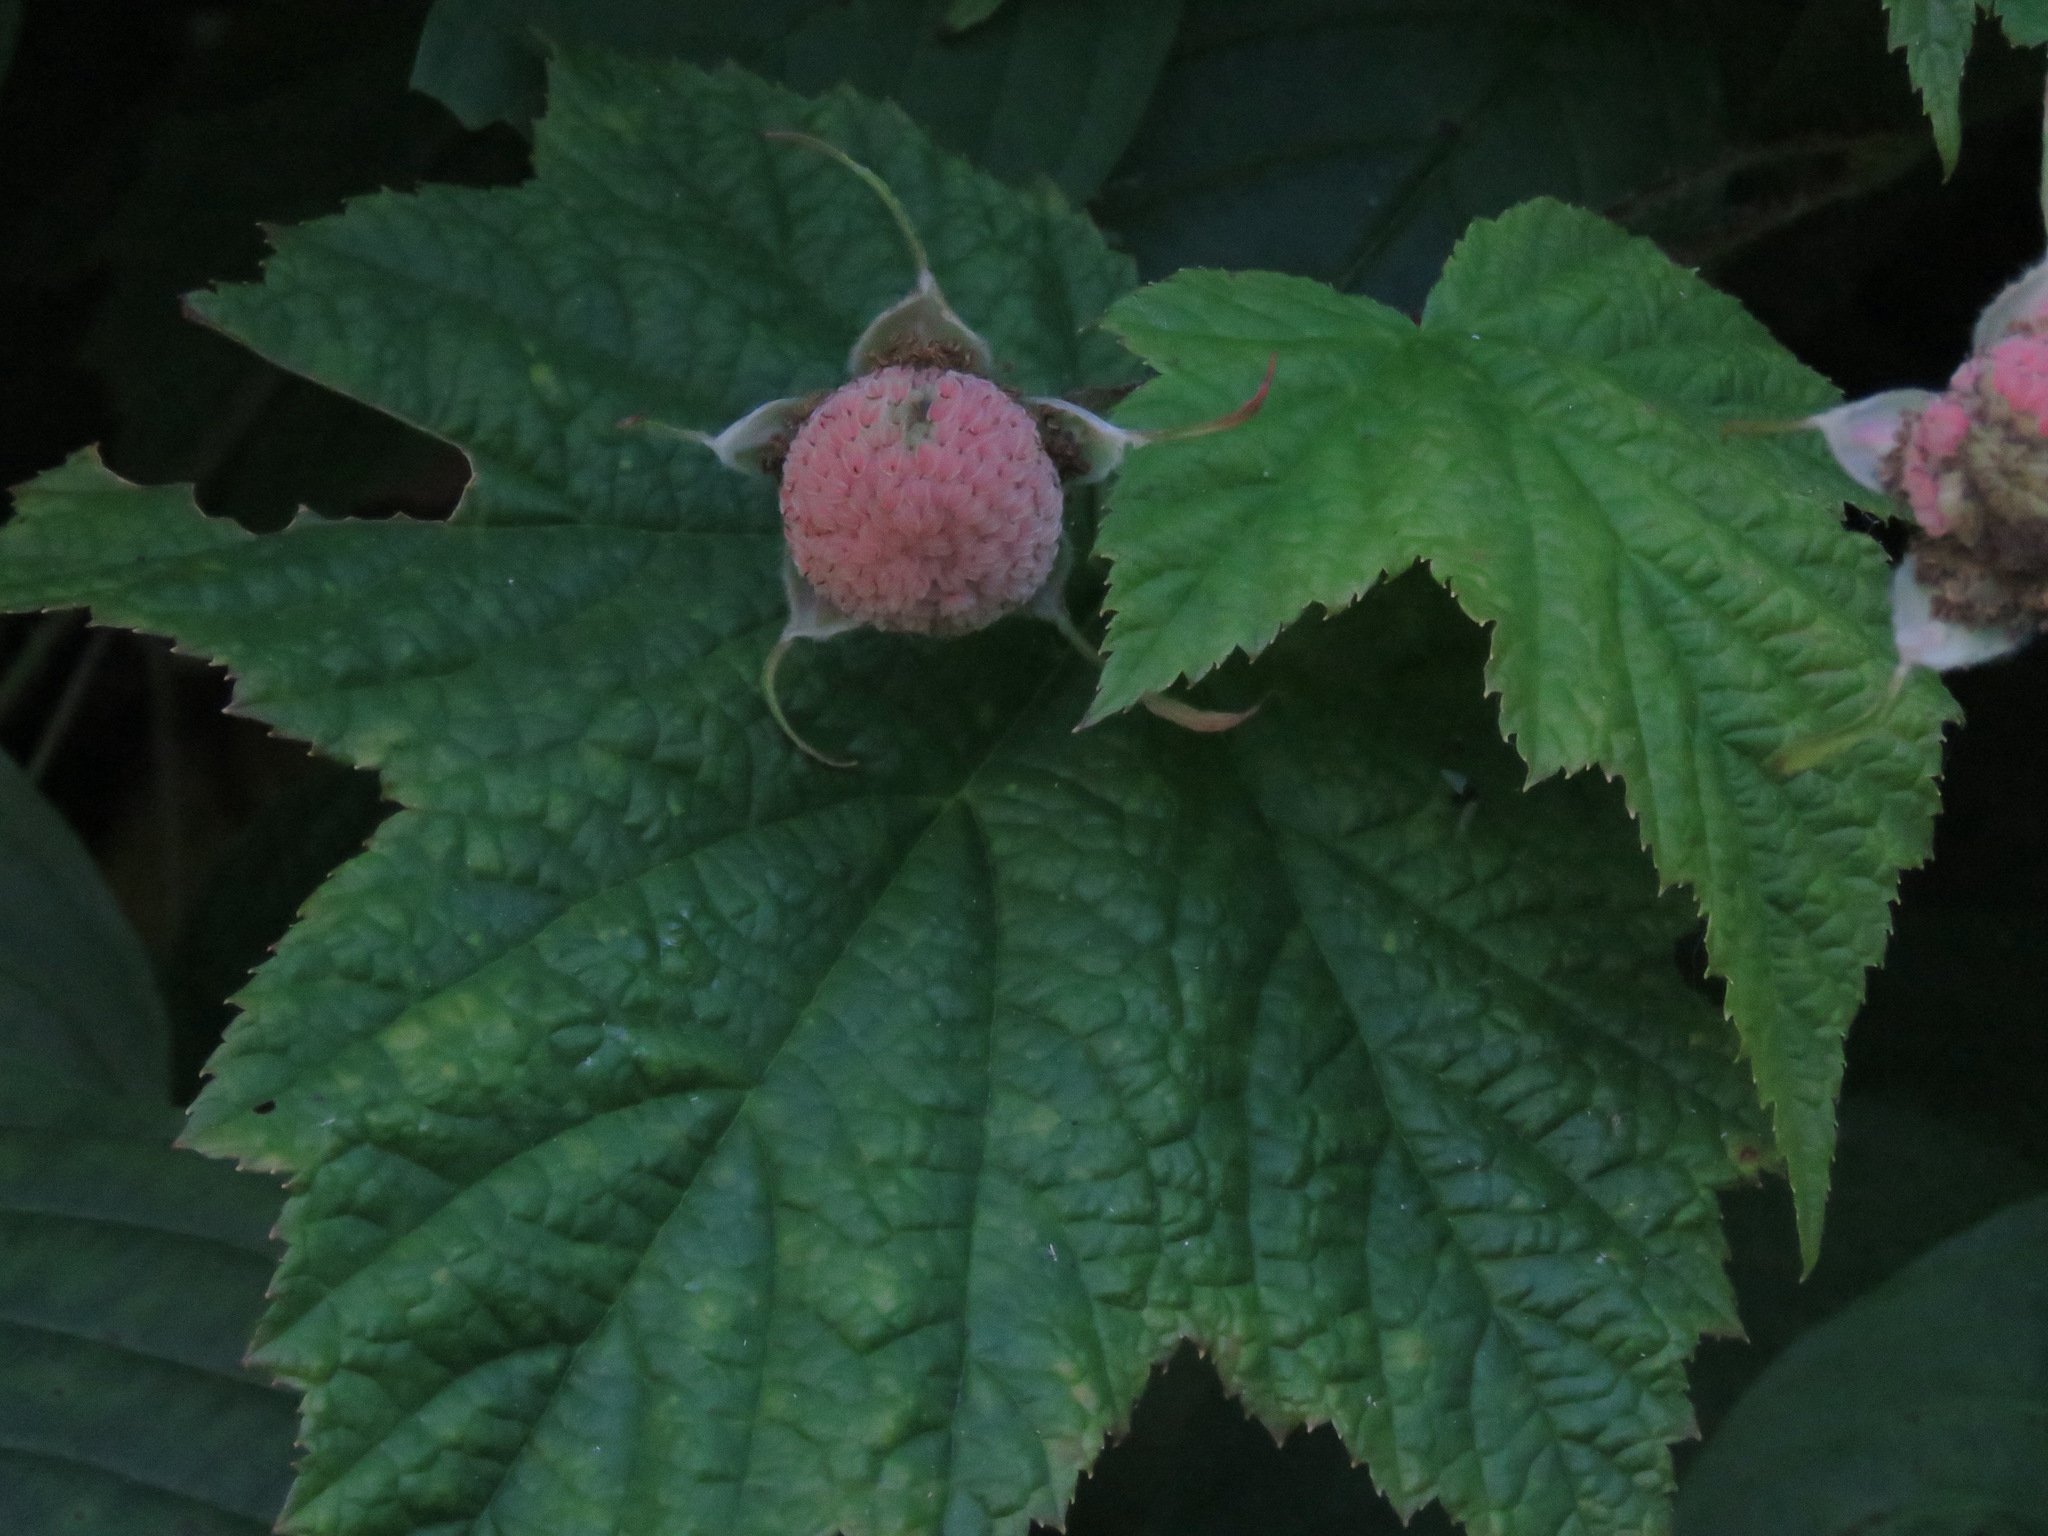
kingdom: Plantae
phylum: Tracheophyta
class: Magnoliopsida
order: Rosales
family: Rosaceae
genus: Rubus
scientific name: Rubus parviflorus
